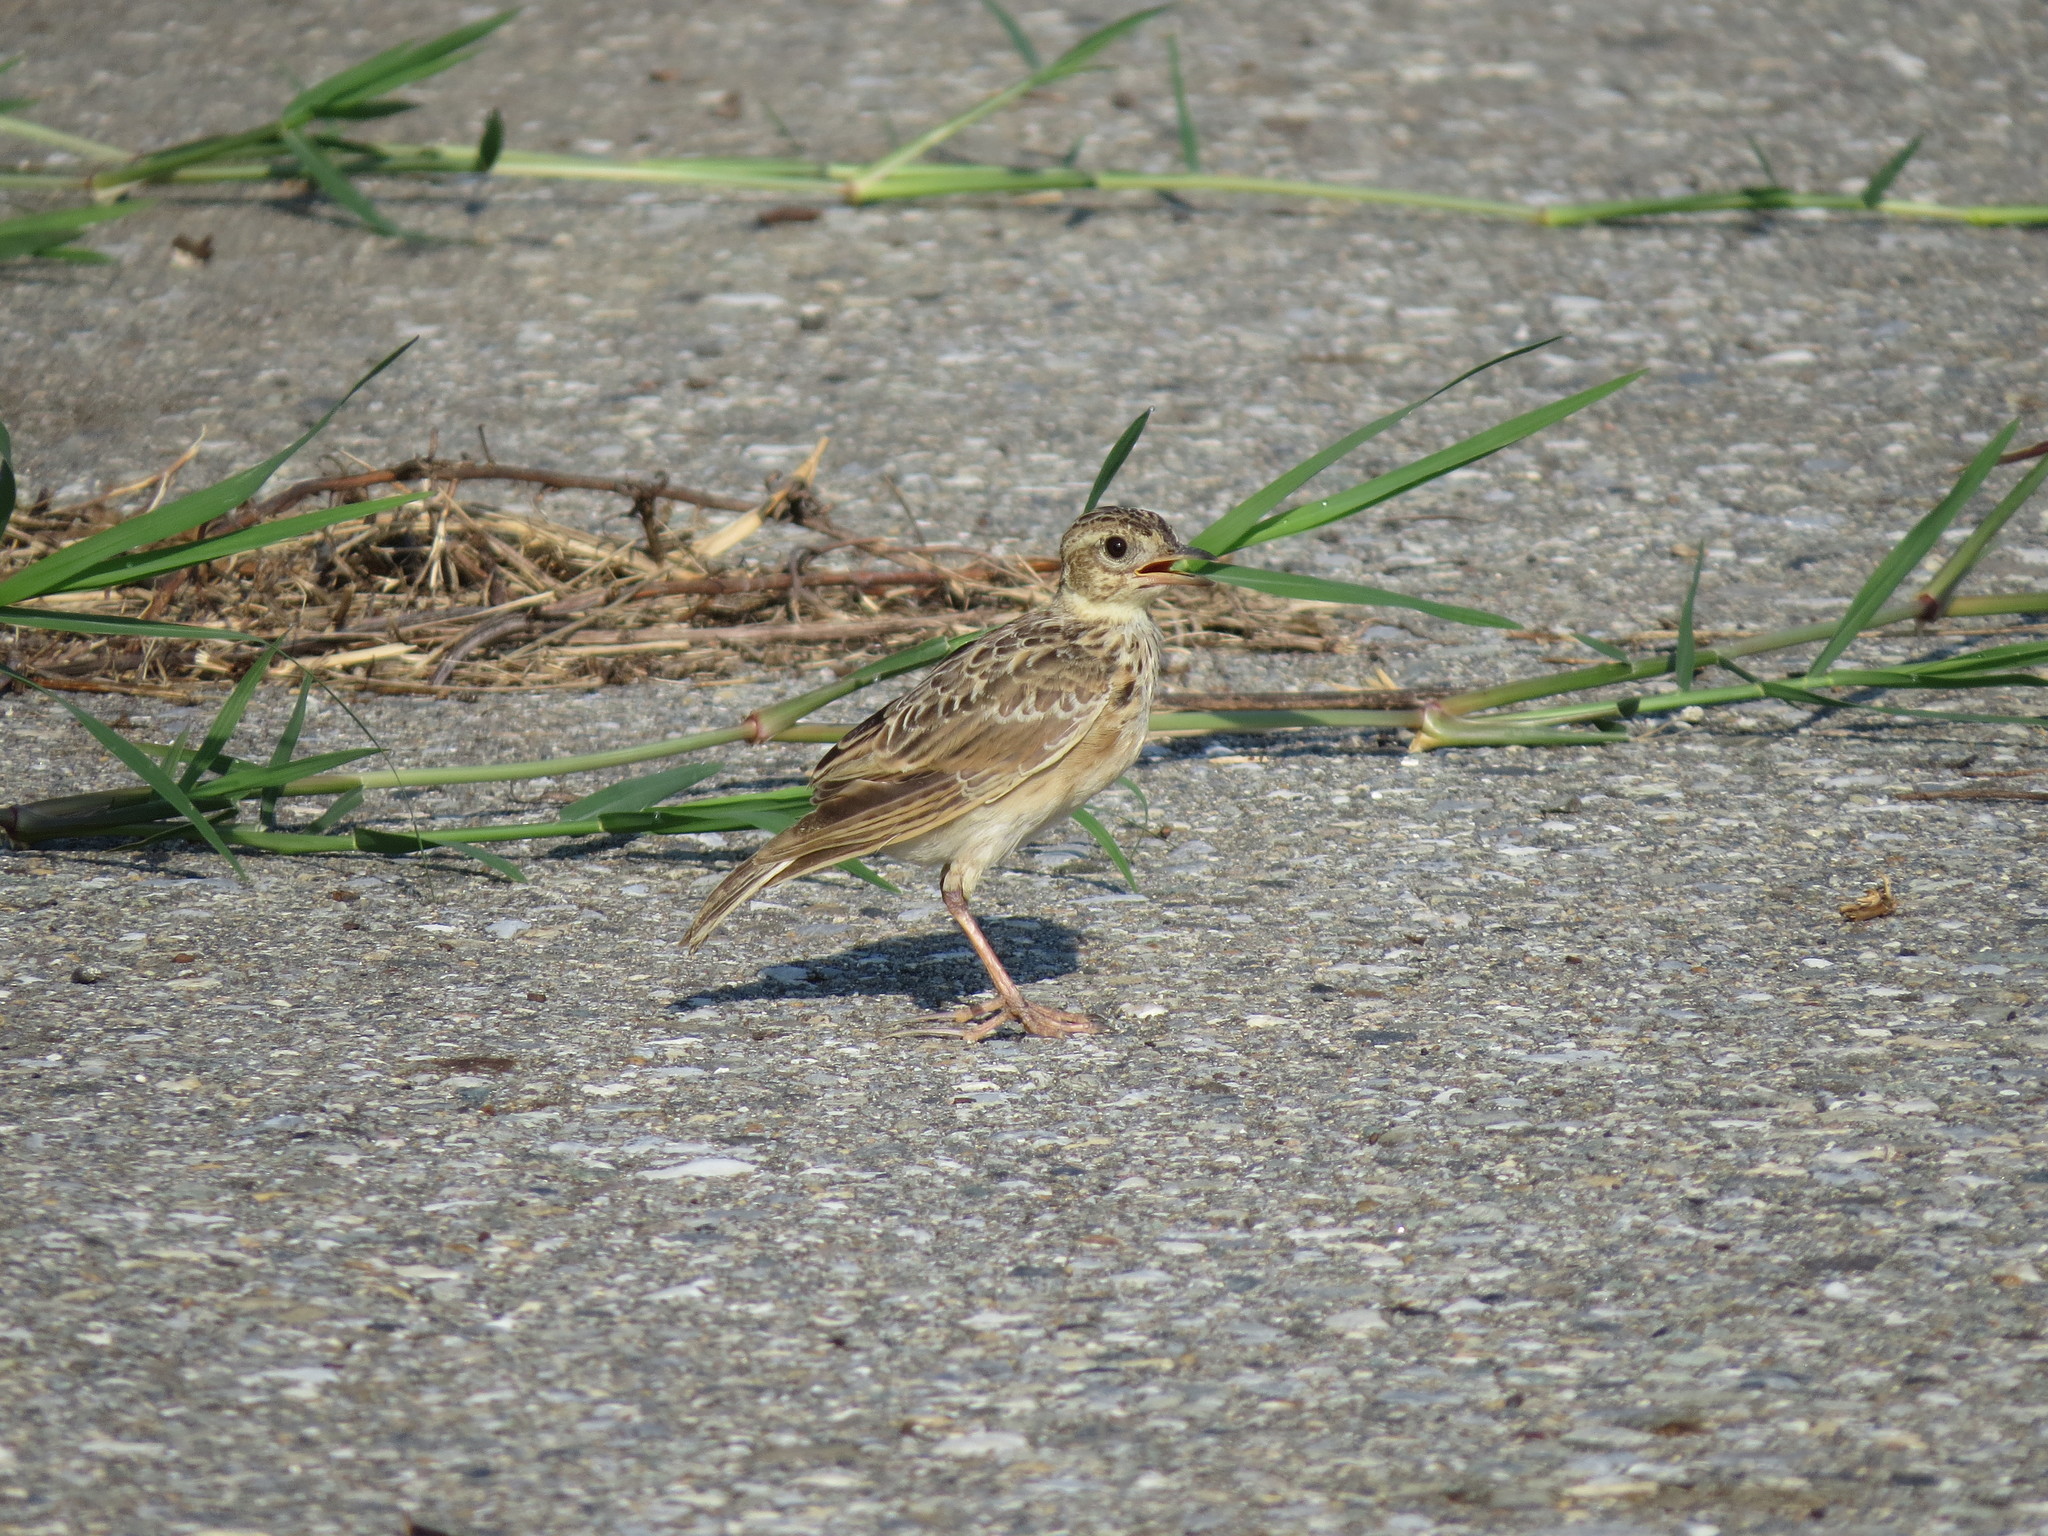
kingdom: Animalia
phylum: Chordata
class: Aves
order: Passeriformes
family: Alaudidae
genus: Alauda
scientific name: Alauda gulgula
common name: Oriental skylark
